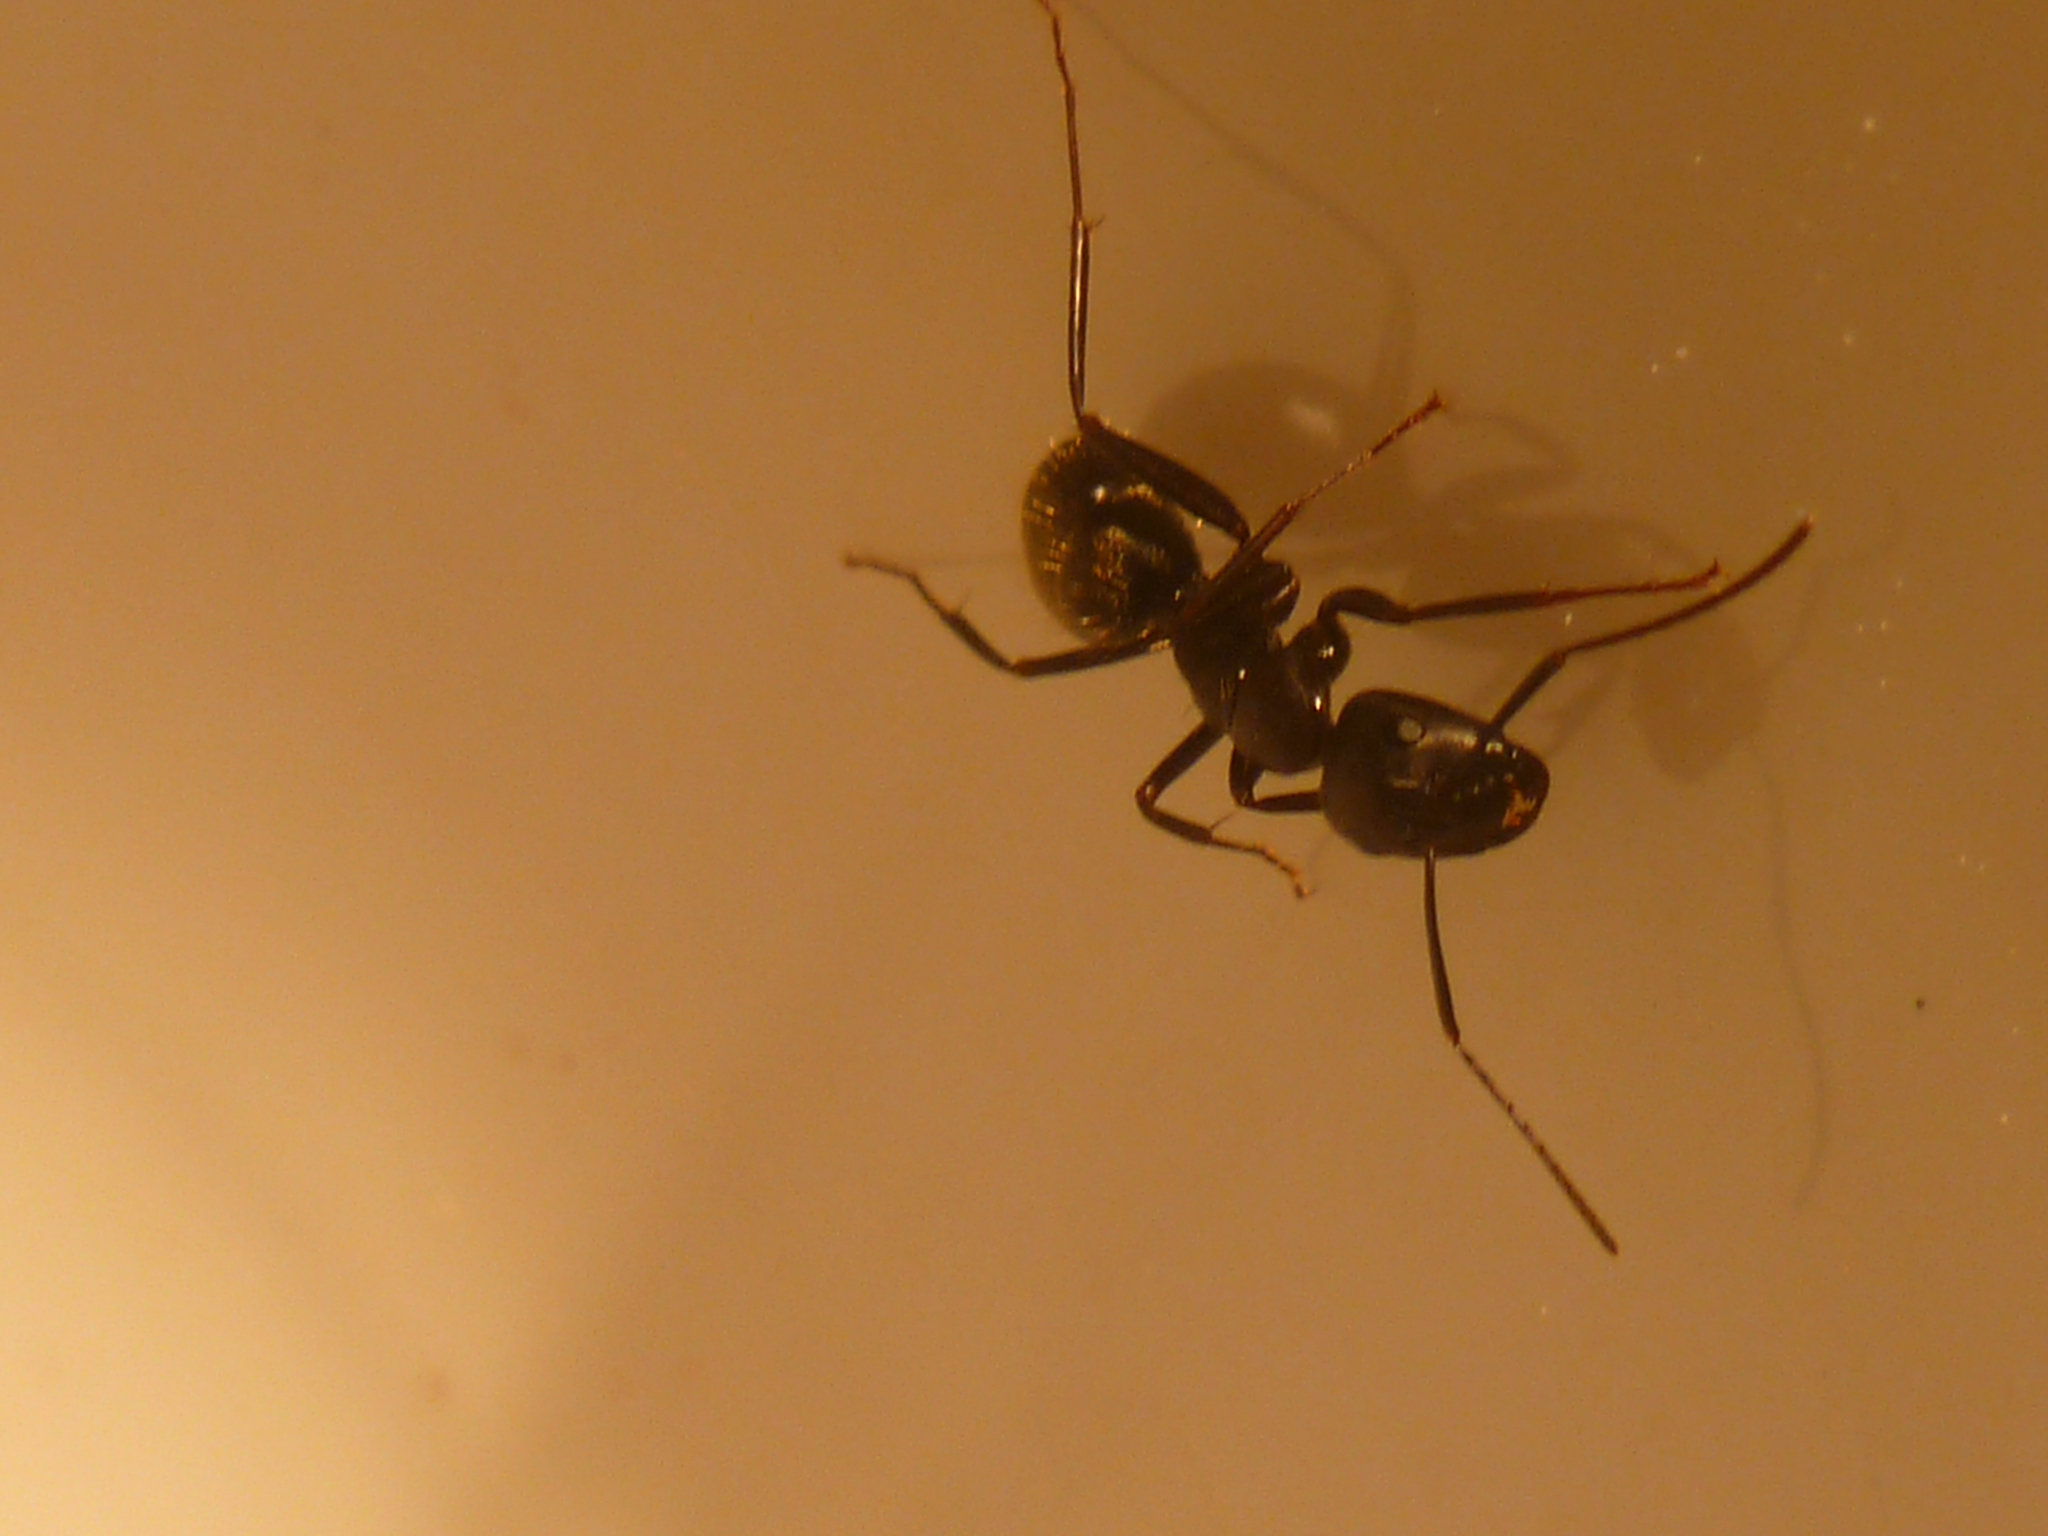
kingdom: Animalia
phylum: Arthropoda
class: Insecta
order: Hymenoptera
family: Formicidae
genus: Camponotus
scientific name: Camponotus pennsylvanicus
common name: Black carpenter ant
